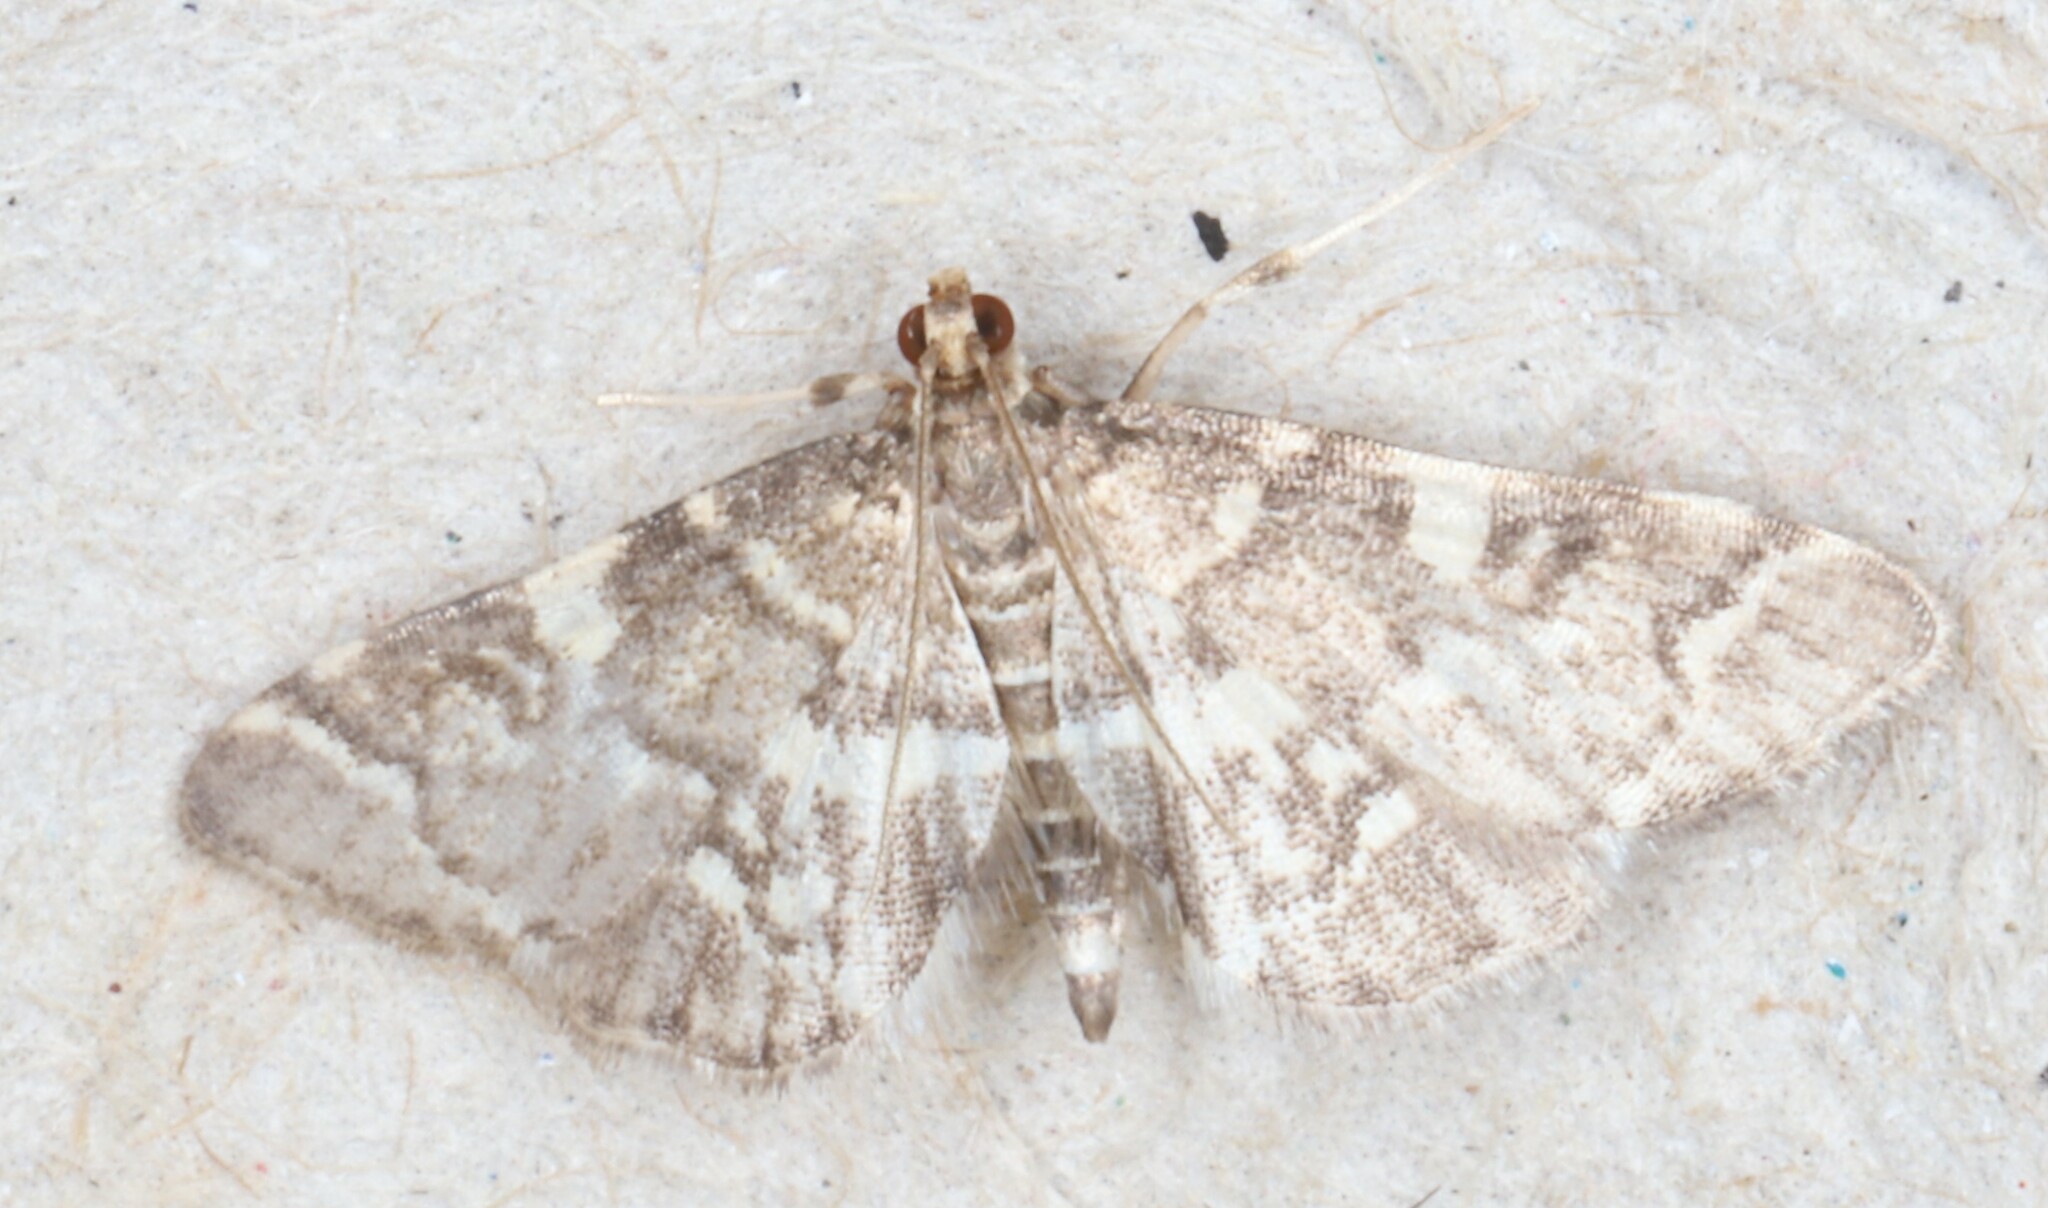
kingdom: Animalia
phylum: Arthropoda
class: Insecta
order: Lepidoptera
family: Crambidae
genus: Anageshna
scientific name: Anageshna primordialis
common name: Yellow-spotted webworm moth
